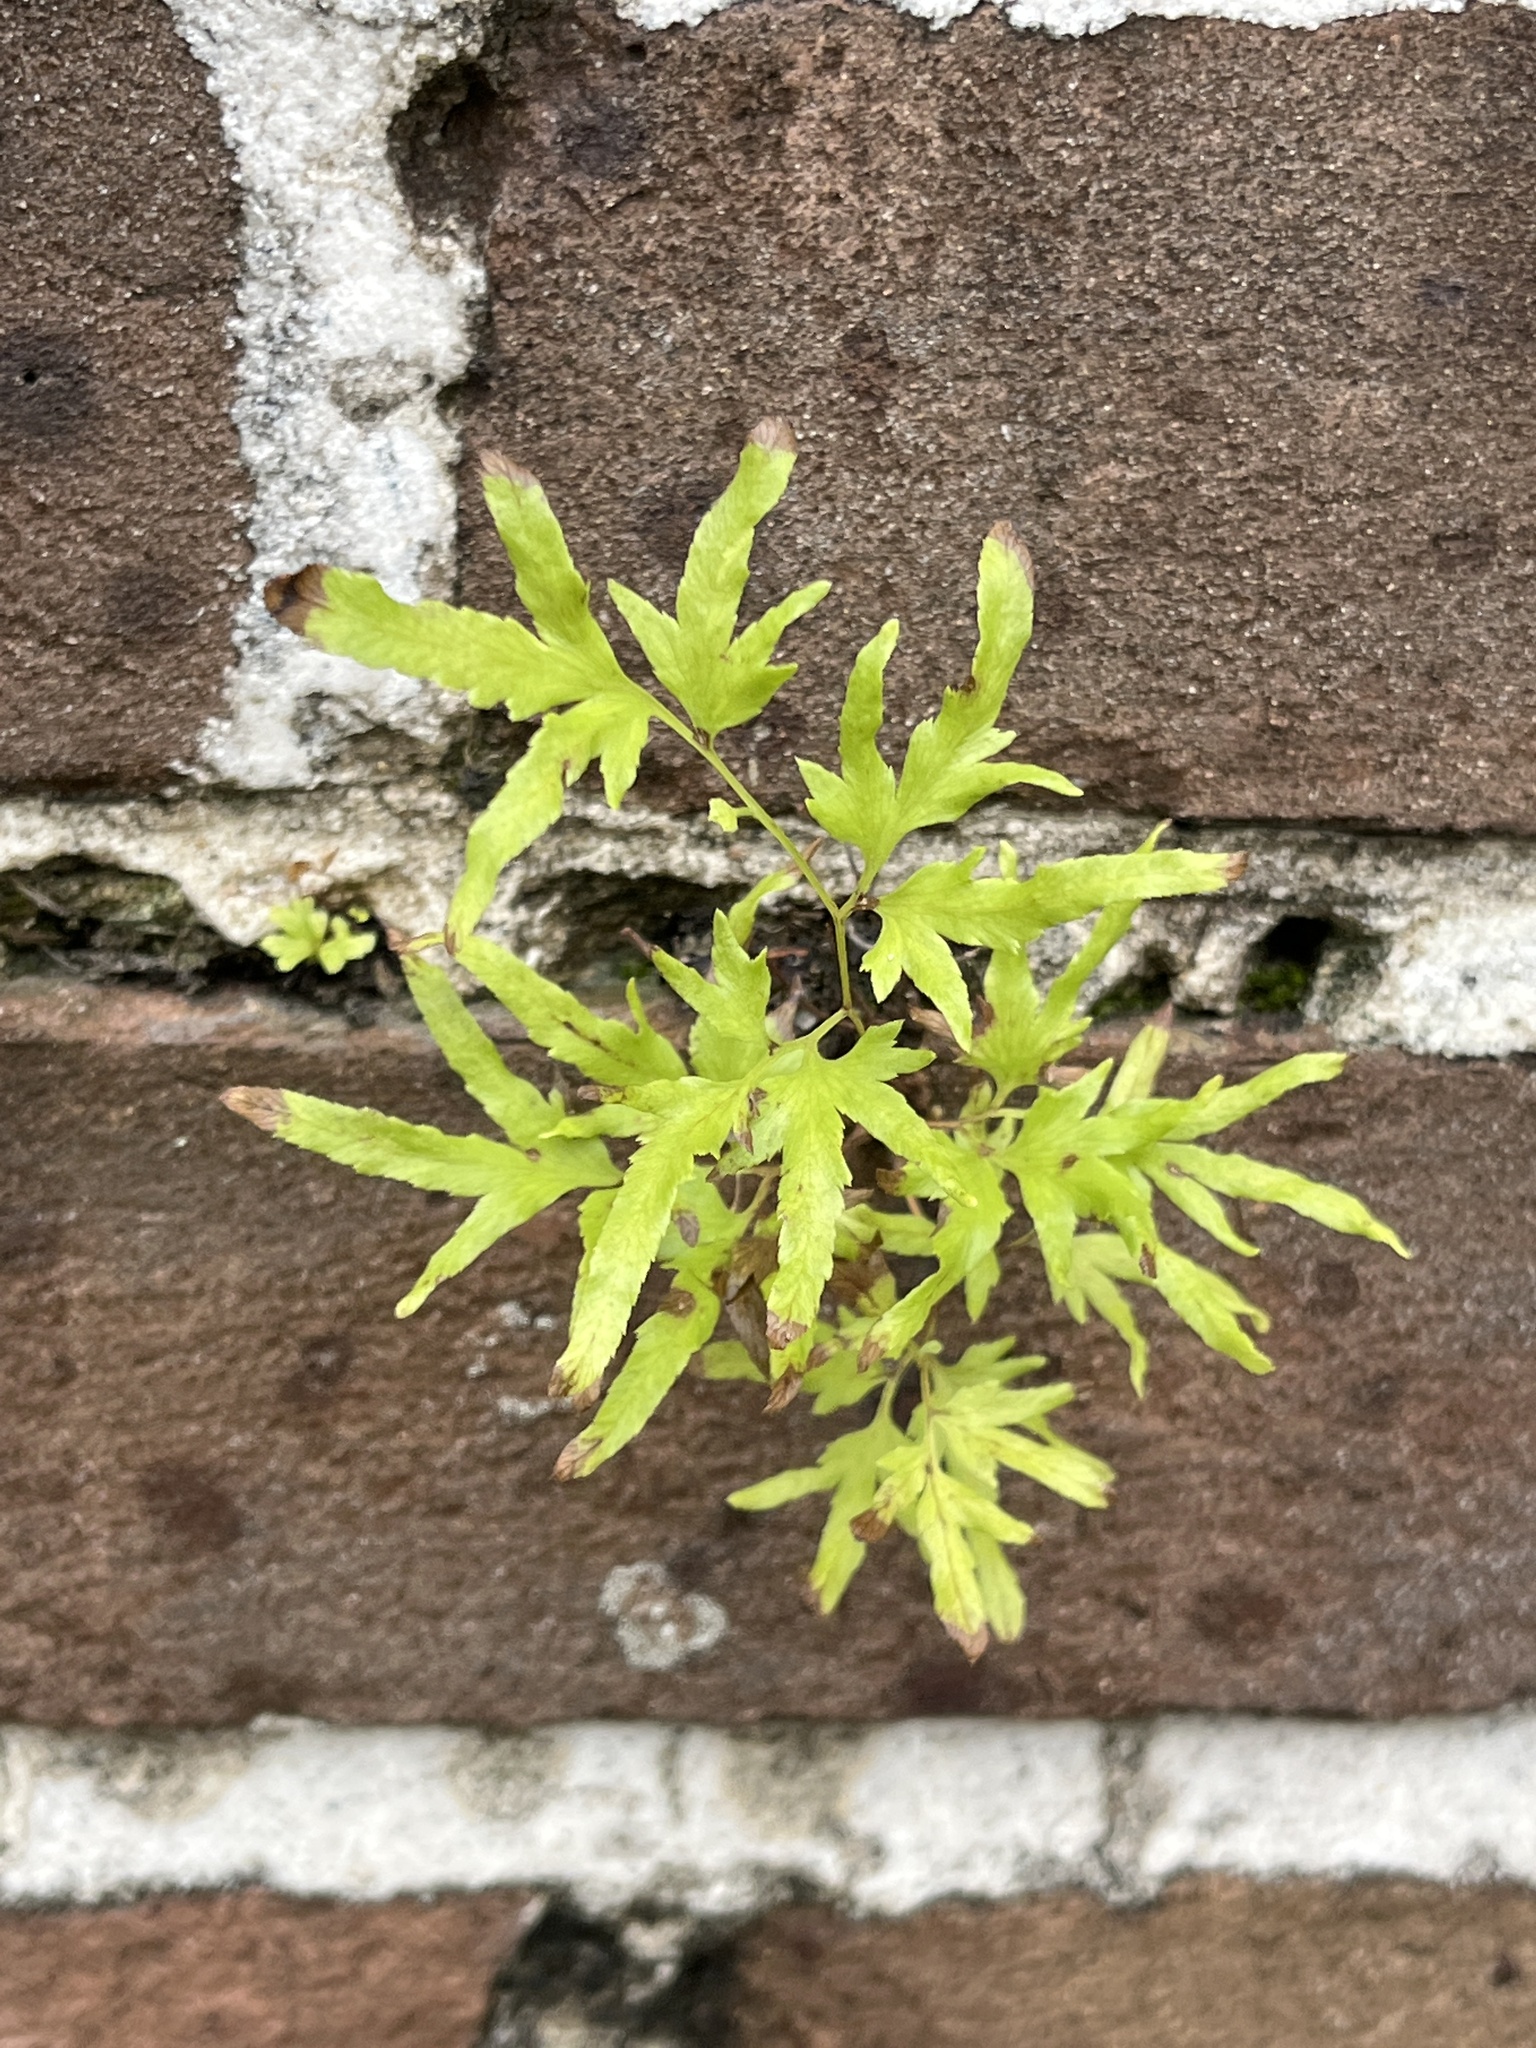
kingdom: Plantae
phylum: Tracheophyta
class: Polypodiopsida
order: Schizaeales
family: Lygodiaceae
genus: Lygodium
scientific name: Lygodium japonicum
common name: Japanese climbing fern
